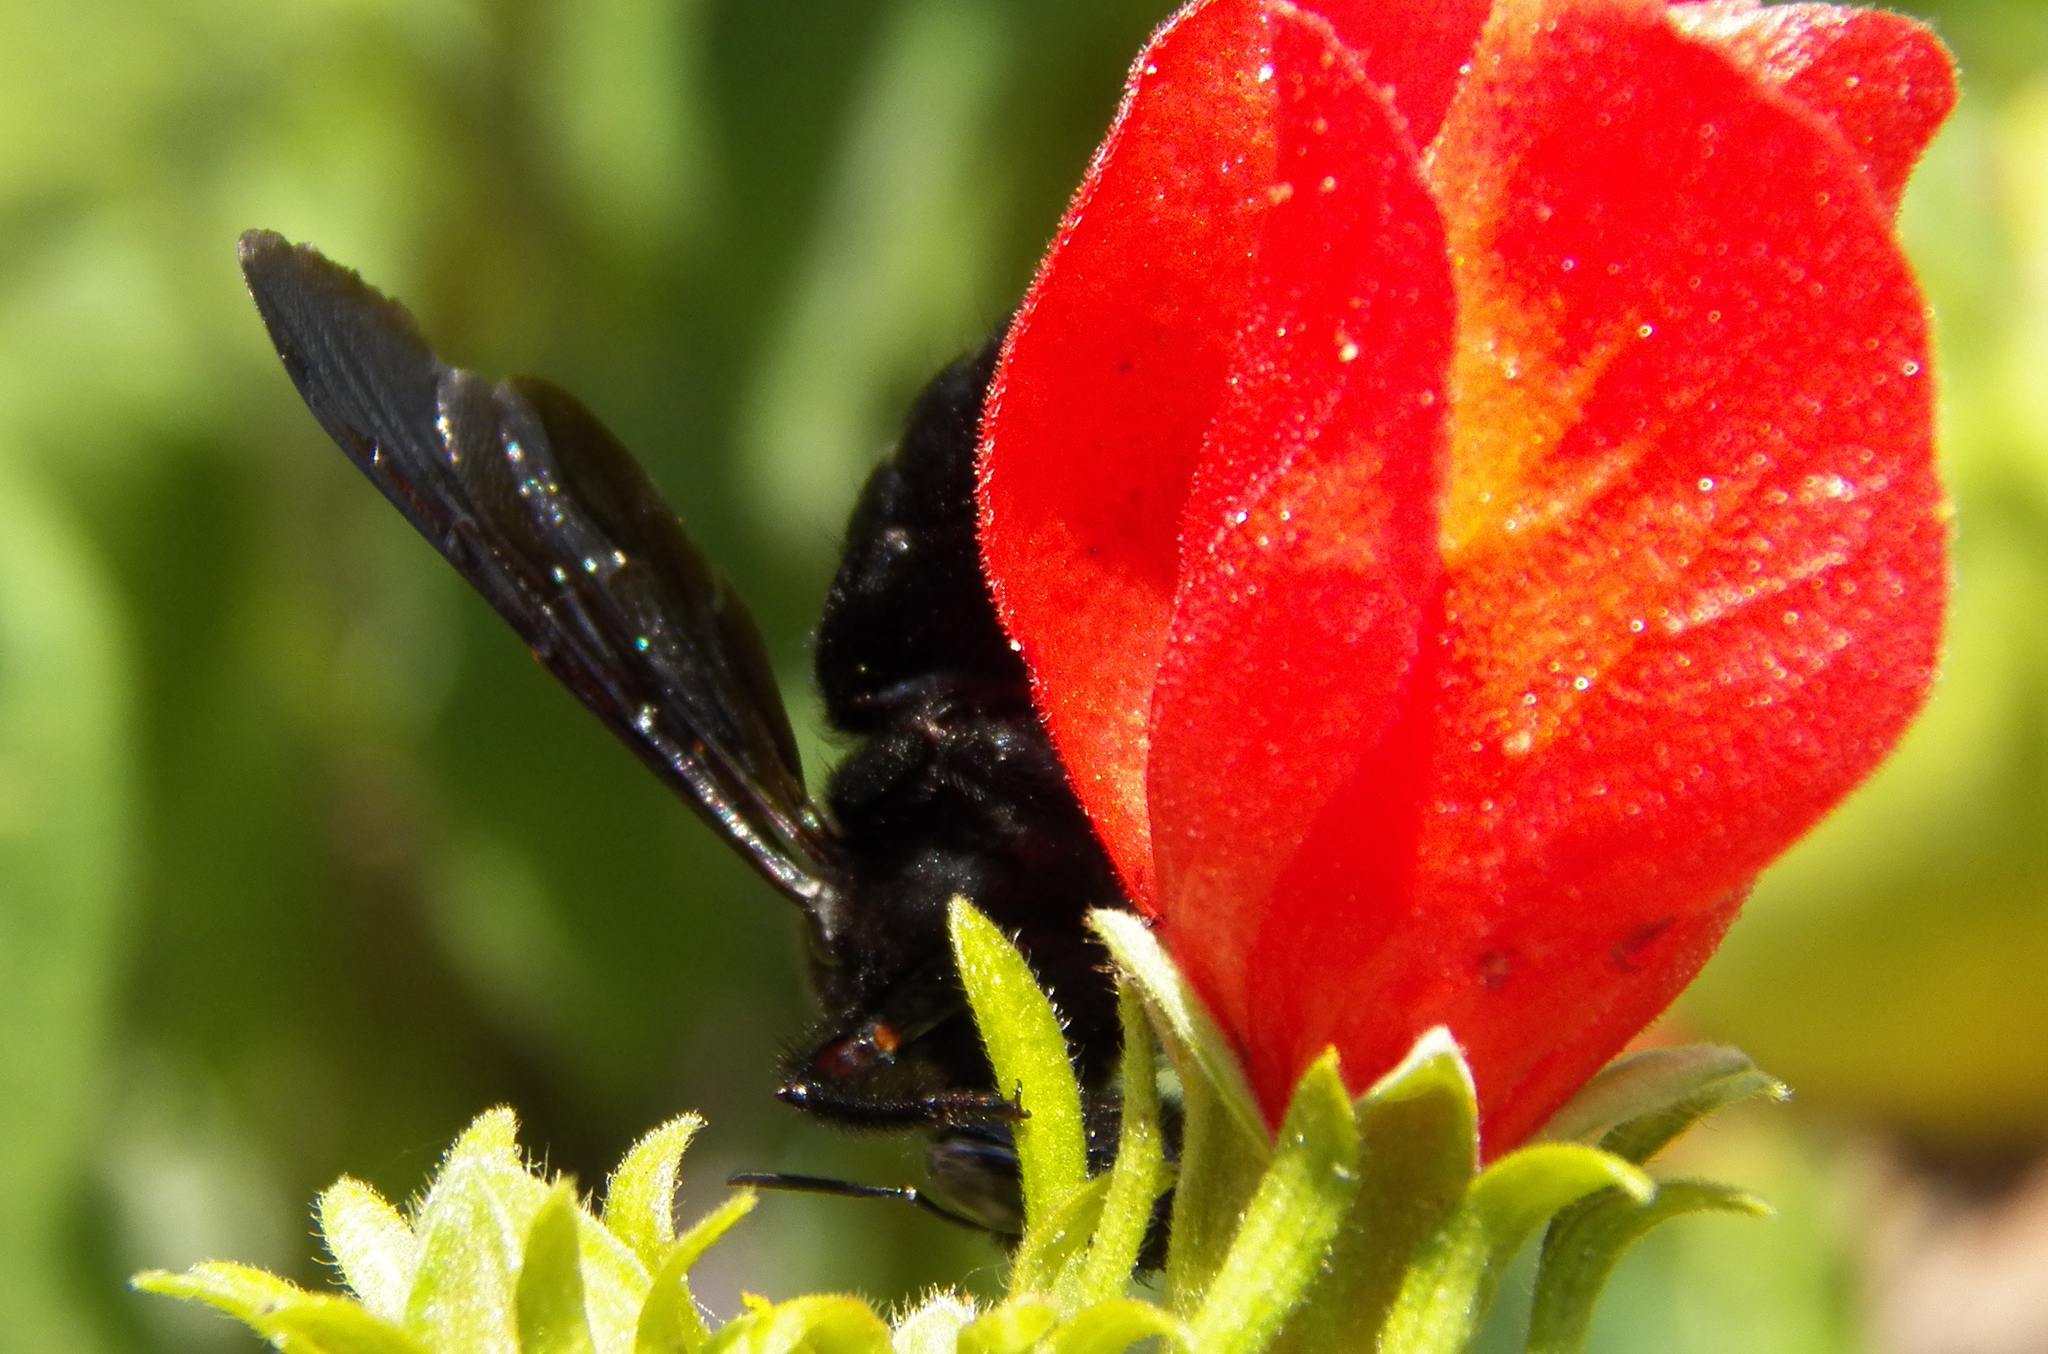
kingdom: Animalia
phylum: Arthropoda
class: Insecta
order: Hymenoptera
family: Apidae
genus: Xylocopa
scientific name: Xylocopa strandi
